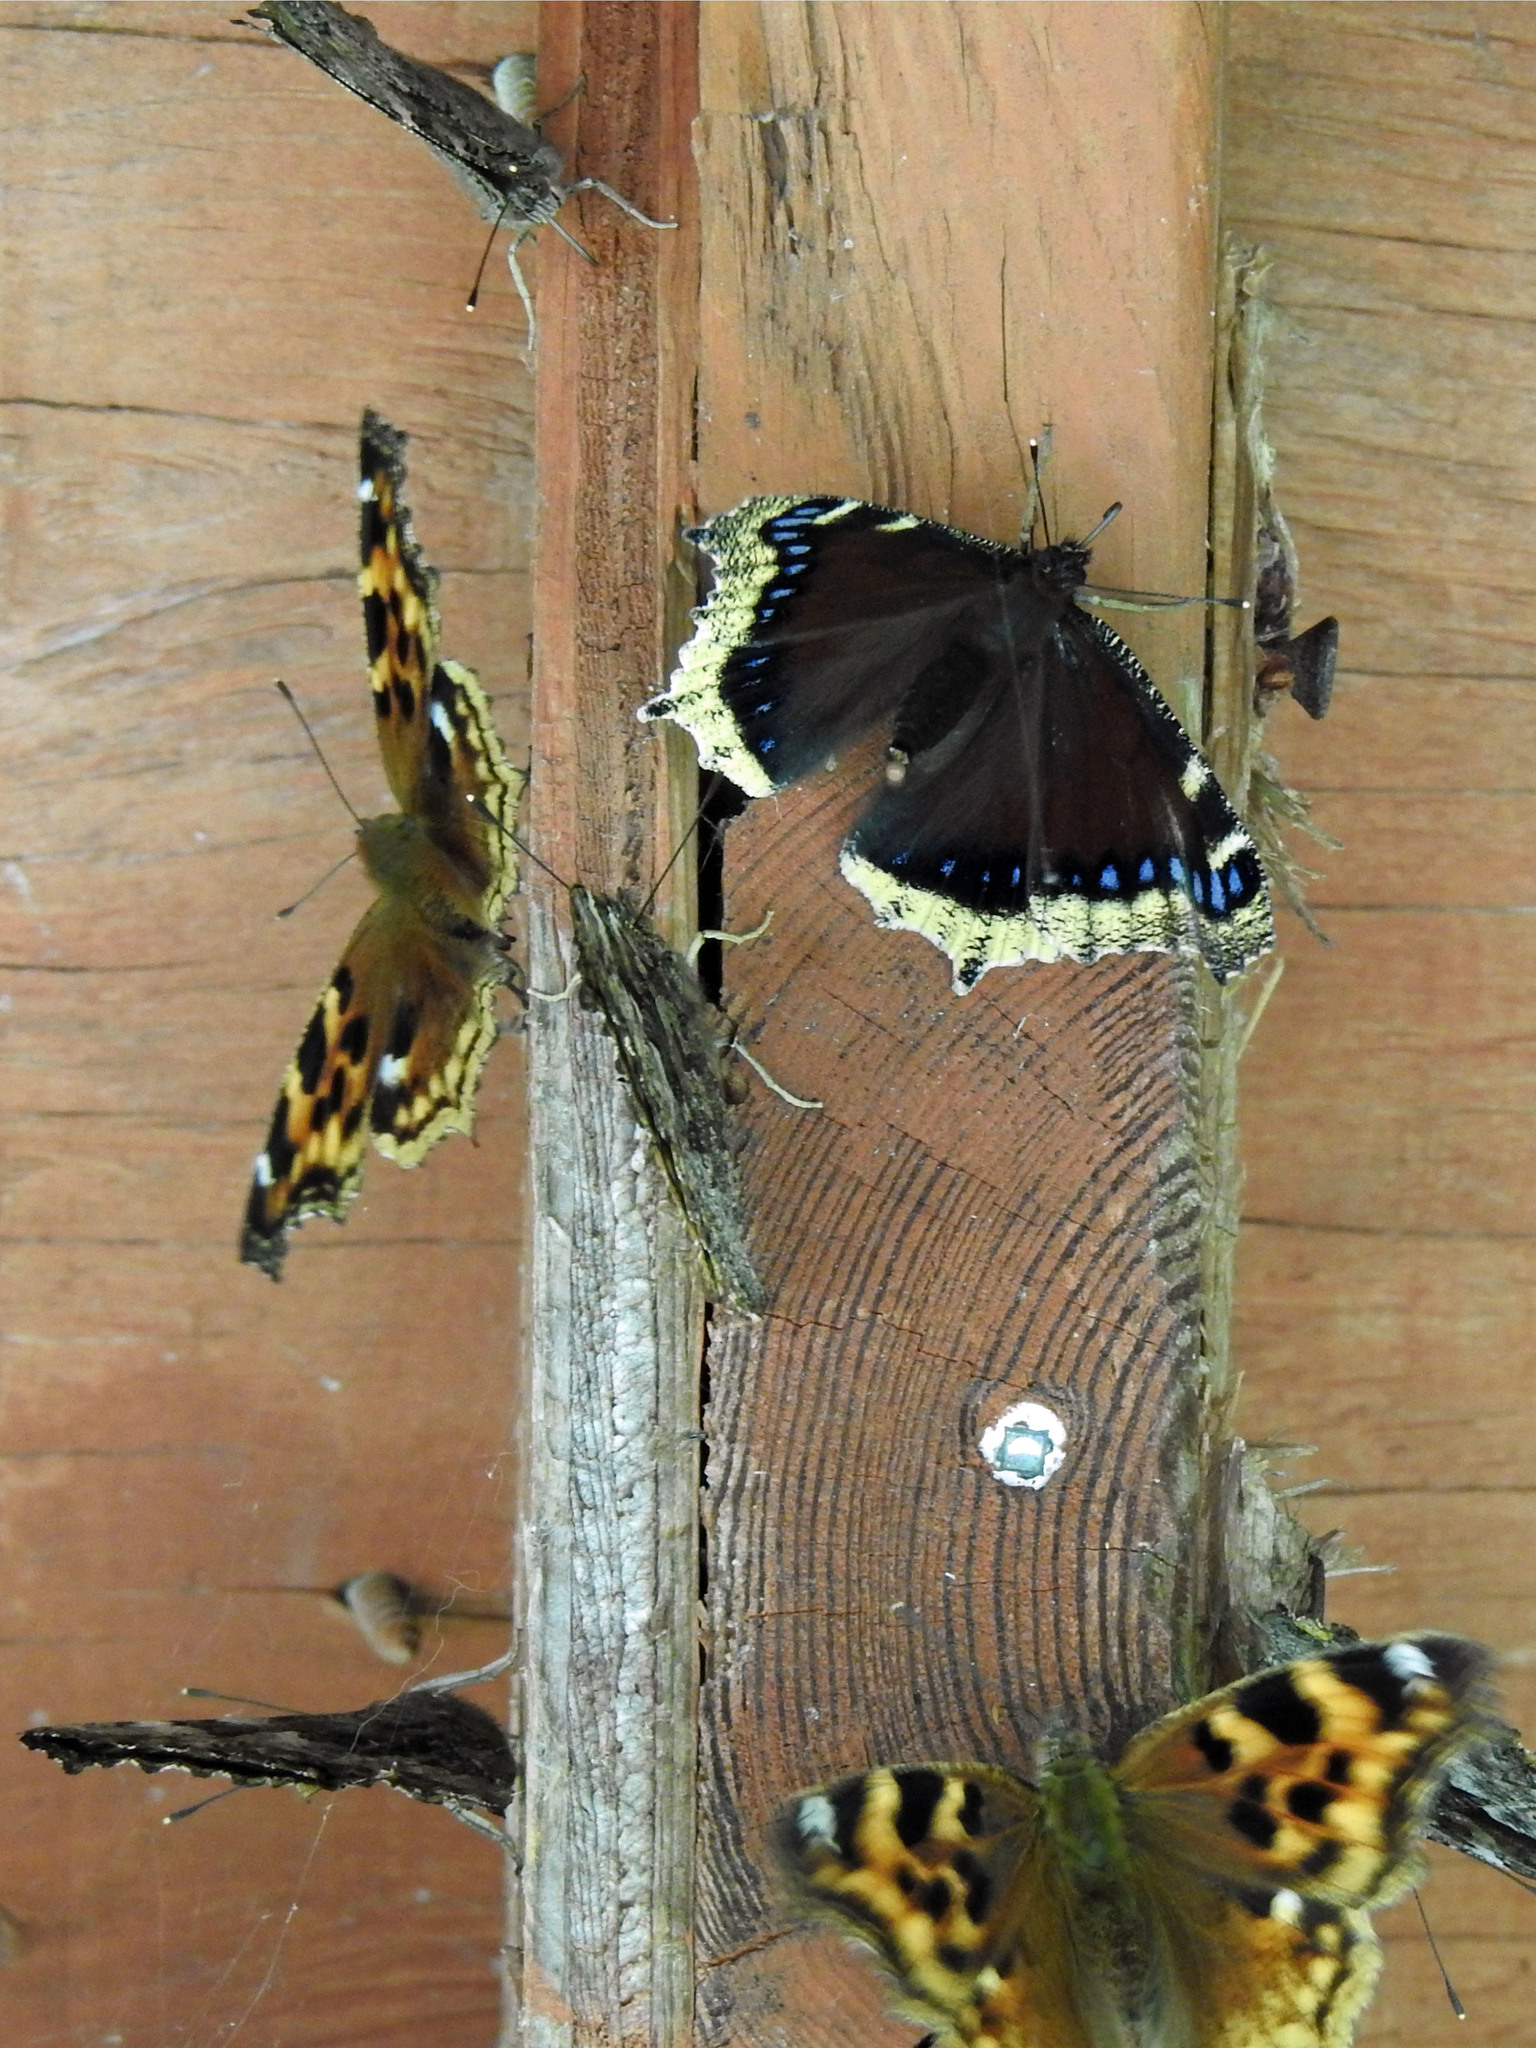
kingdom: Animalia
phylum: Arthropoda
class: Insecta
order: Lepidoptera
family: Nymphalidae
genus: Nymphalis
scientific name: Nymphalis antiopa
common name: Camberwell beauty
